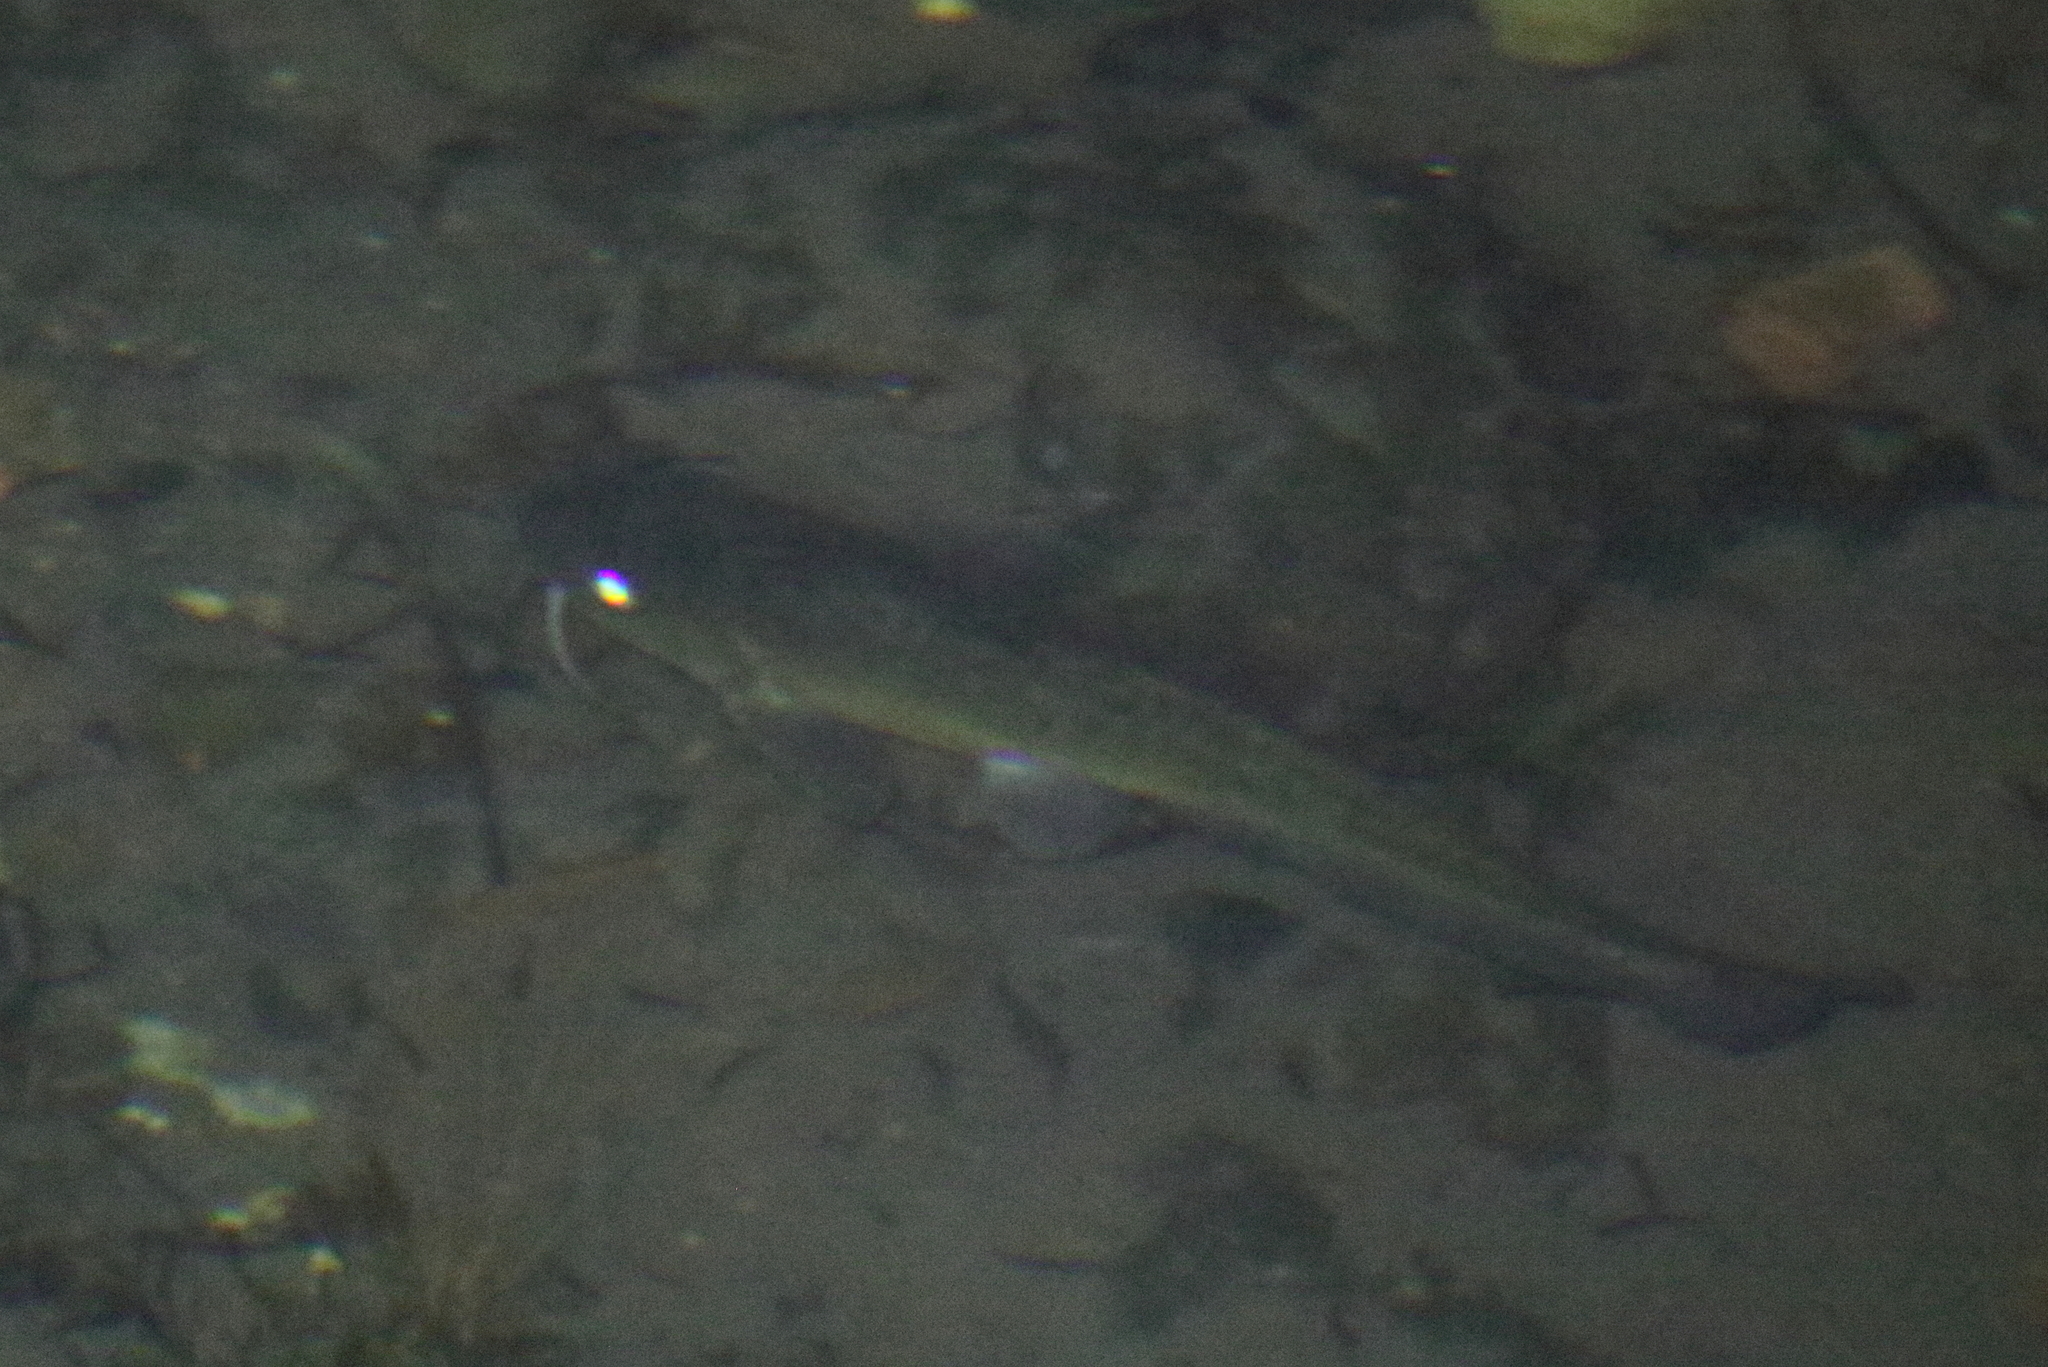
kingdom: Animalia
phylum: Chordata
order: Siluriformes
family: Plotosidae
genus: Tandanus
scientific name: Tandanus tandanus
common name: Eel-tailed catfish
